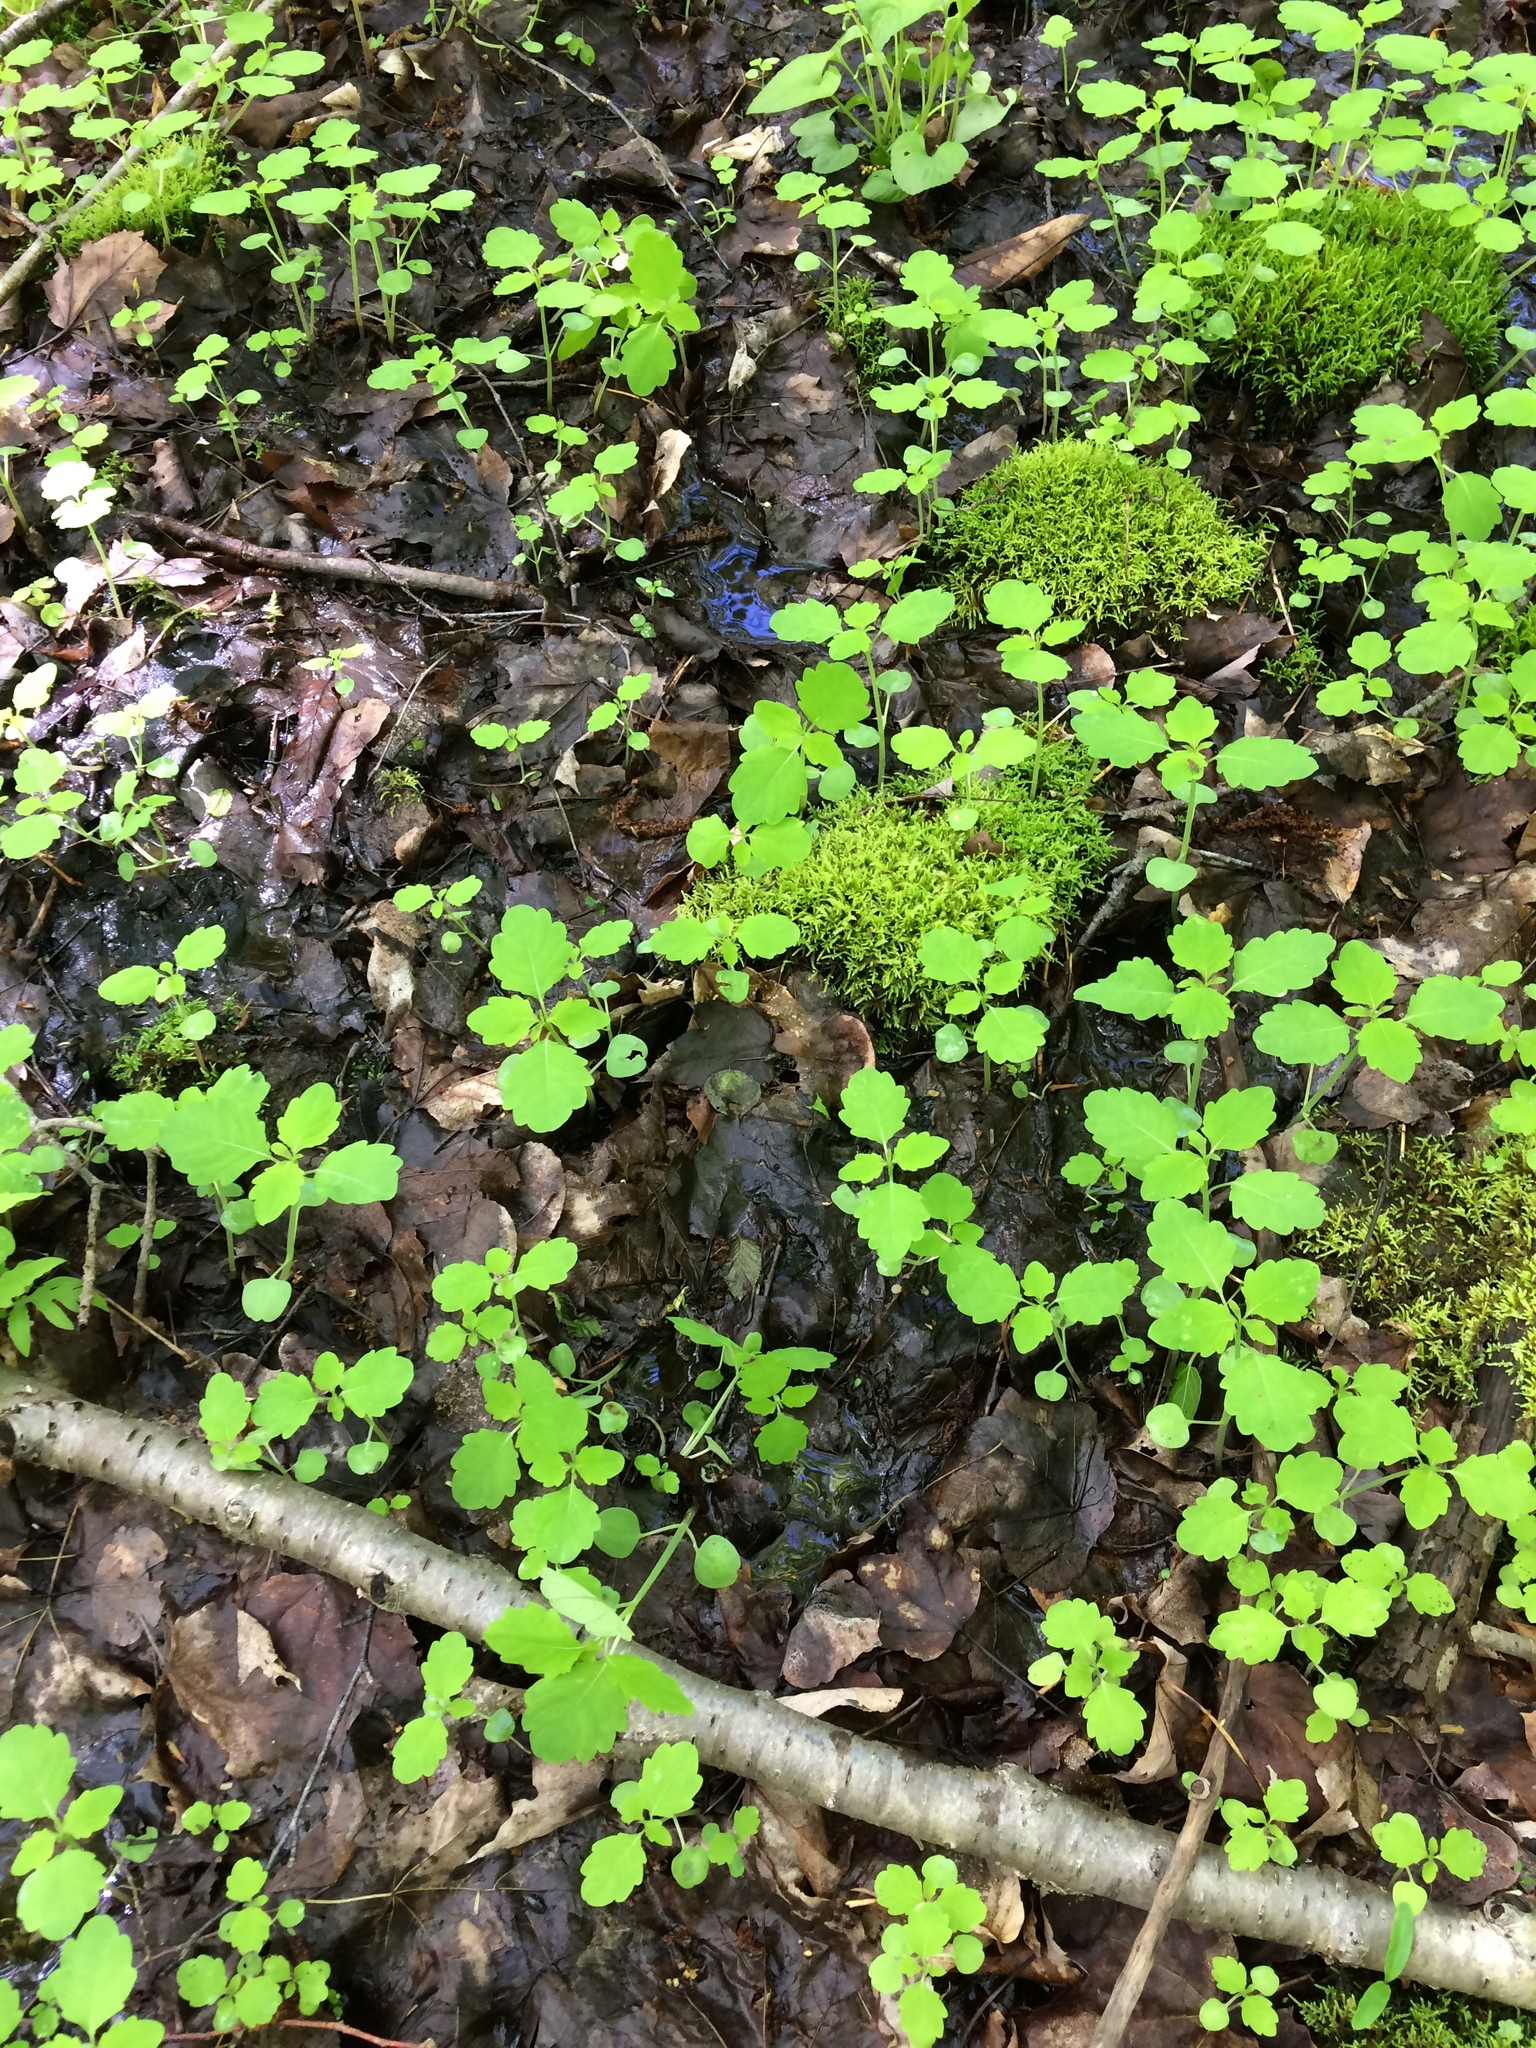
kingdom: Plantae
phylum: Tracheophyta
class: Magnoliopsida
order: Ericales
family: Balsaminaceae
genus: Impatiens
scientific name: Impatiens capensis
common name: Orange balsam
